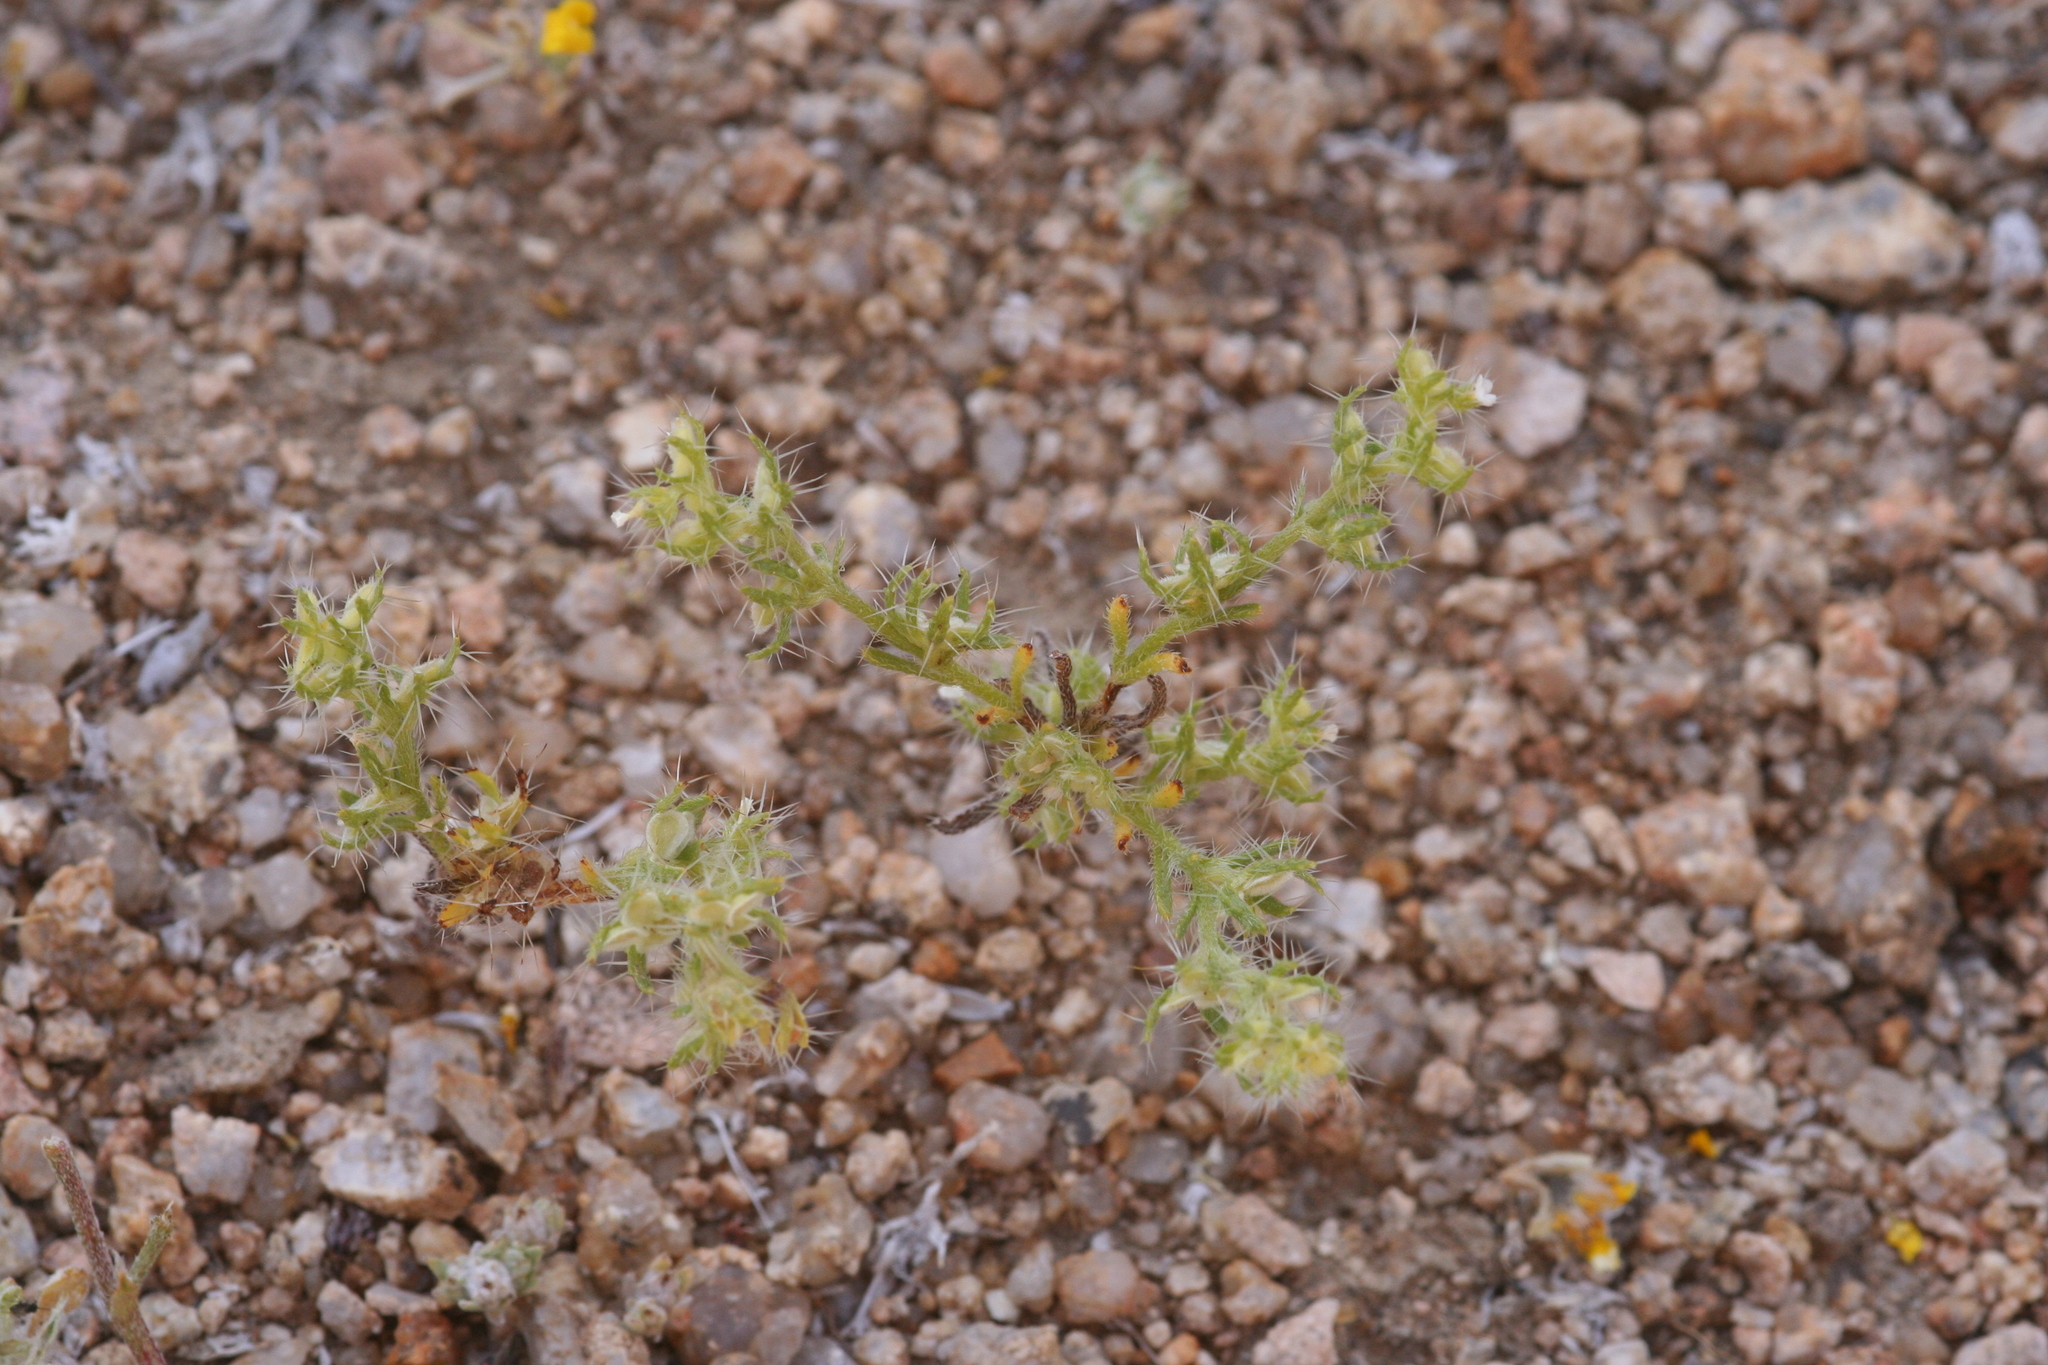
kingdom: Plantae
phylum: Tracheophyta
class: Magnoliopsida
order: Boraginales
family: Boraginaceae
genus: Pectocarya
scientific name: Pectocarya setosa
